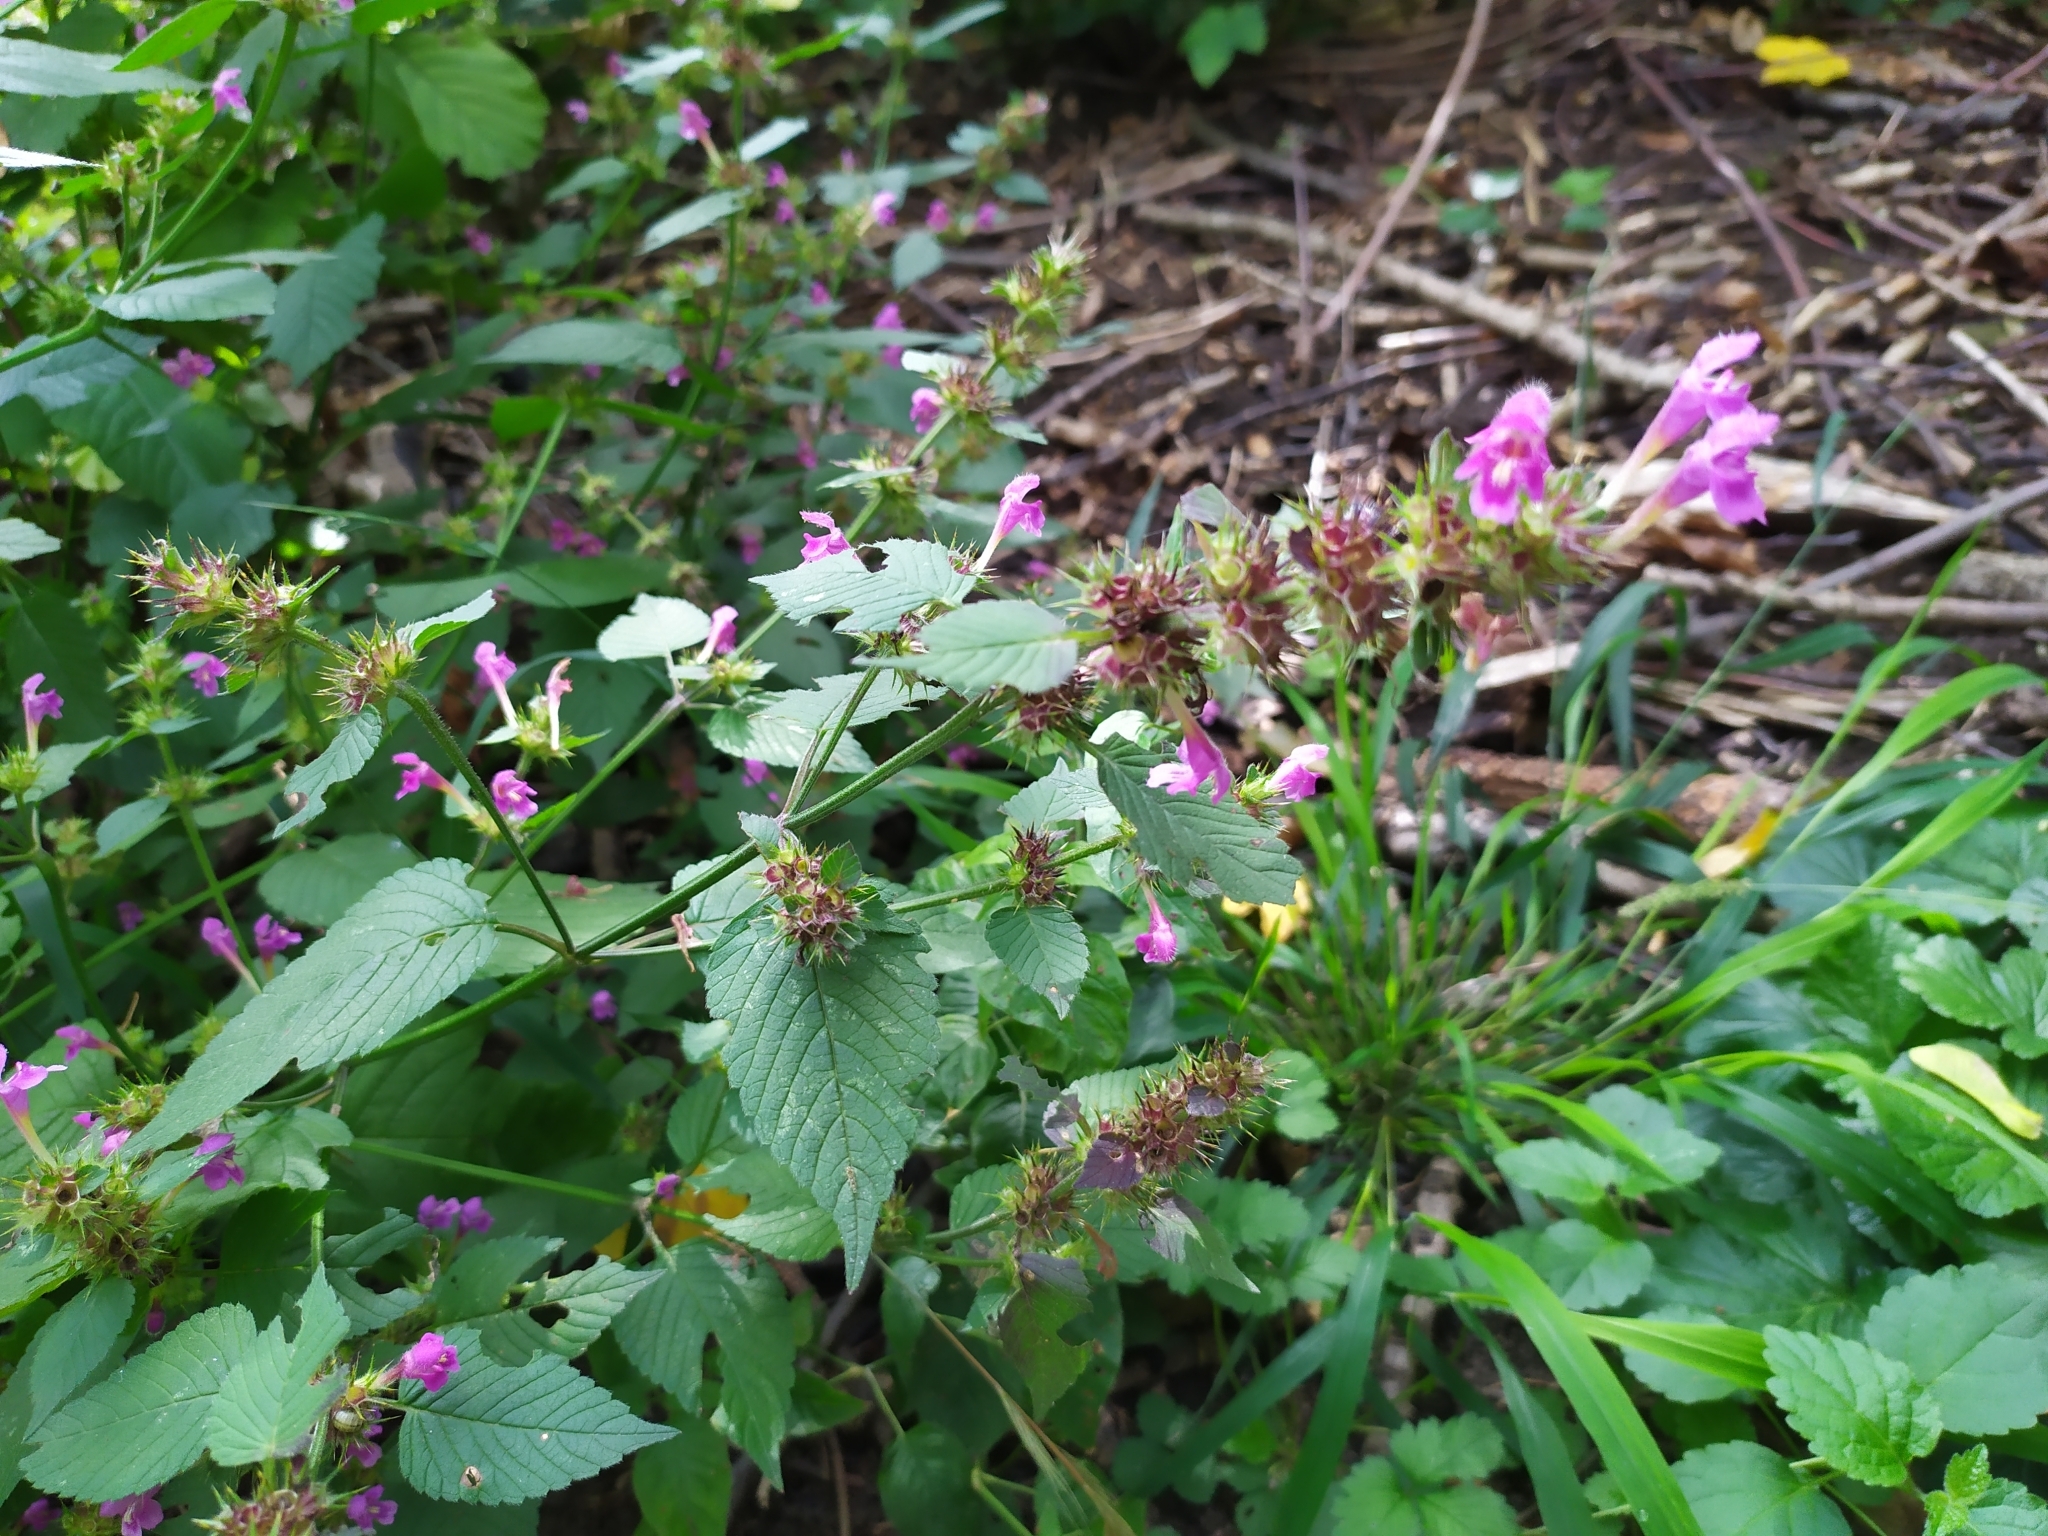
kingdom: Plantae
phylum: Tracheophyta
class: Magnoliopsida
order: Lamiales
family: Lamiaceae
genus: Galeopsis
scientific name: Galeopsis pubescens
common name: Downy hemp-nettle
